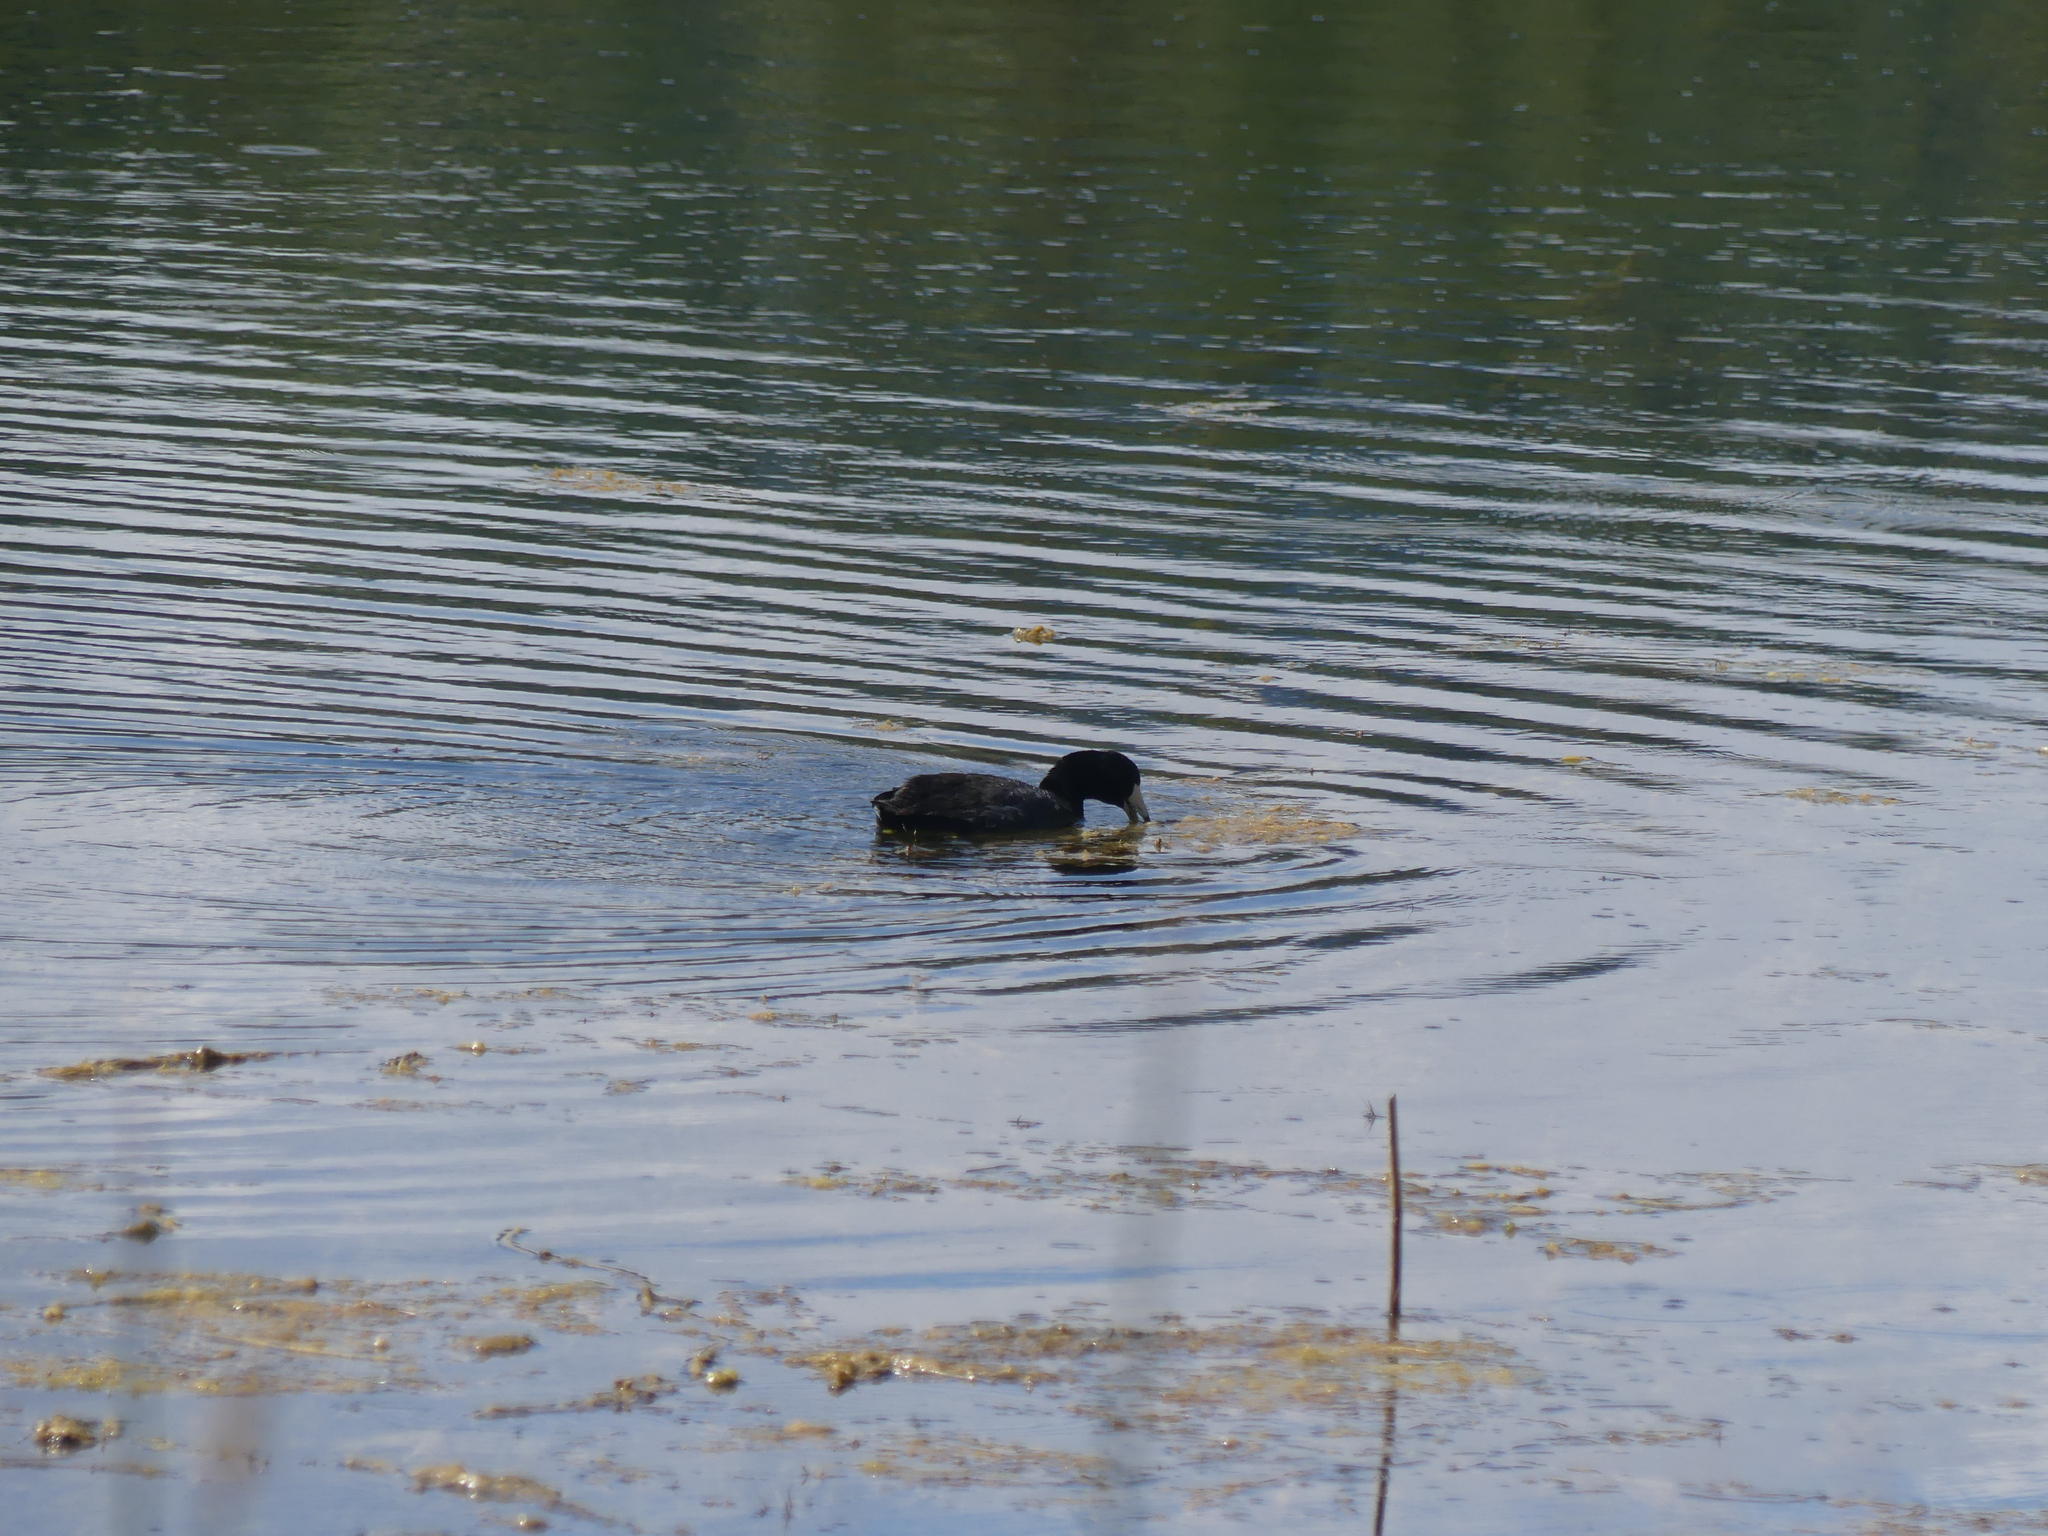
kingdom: Animalia
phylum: Chordata
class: Aves
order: Gruiformes
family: Rallidae
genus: Fulica
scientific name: Fulica americana
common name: American coot
